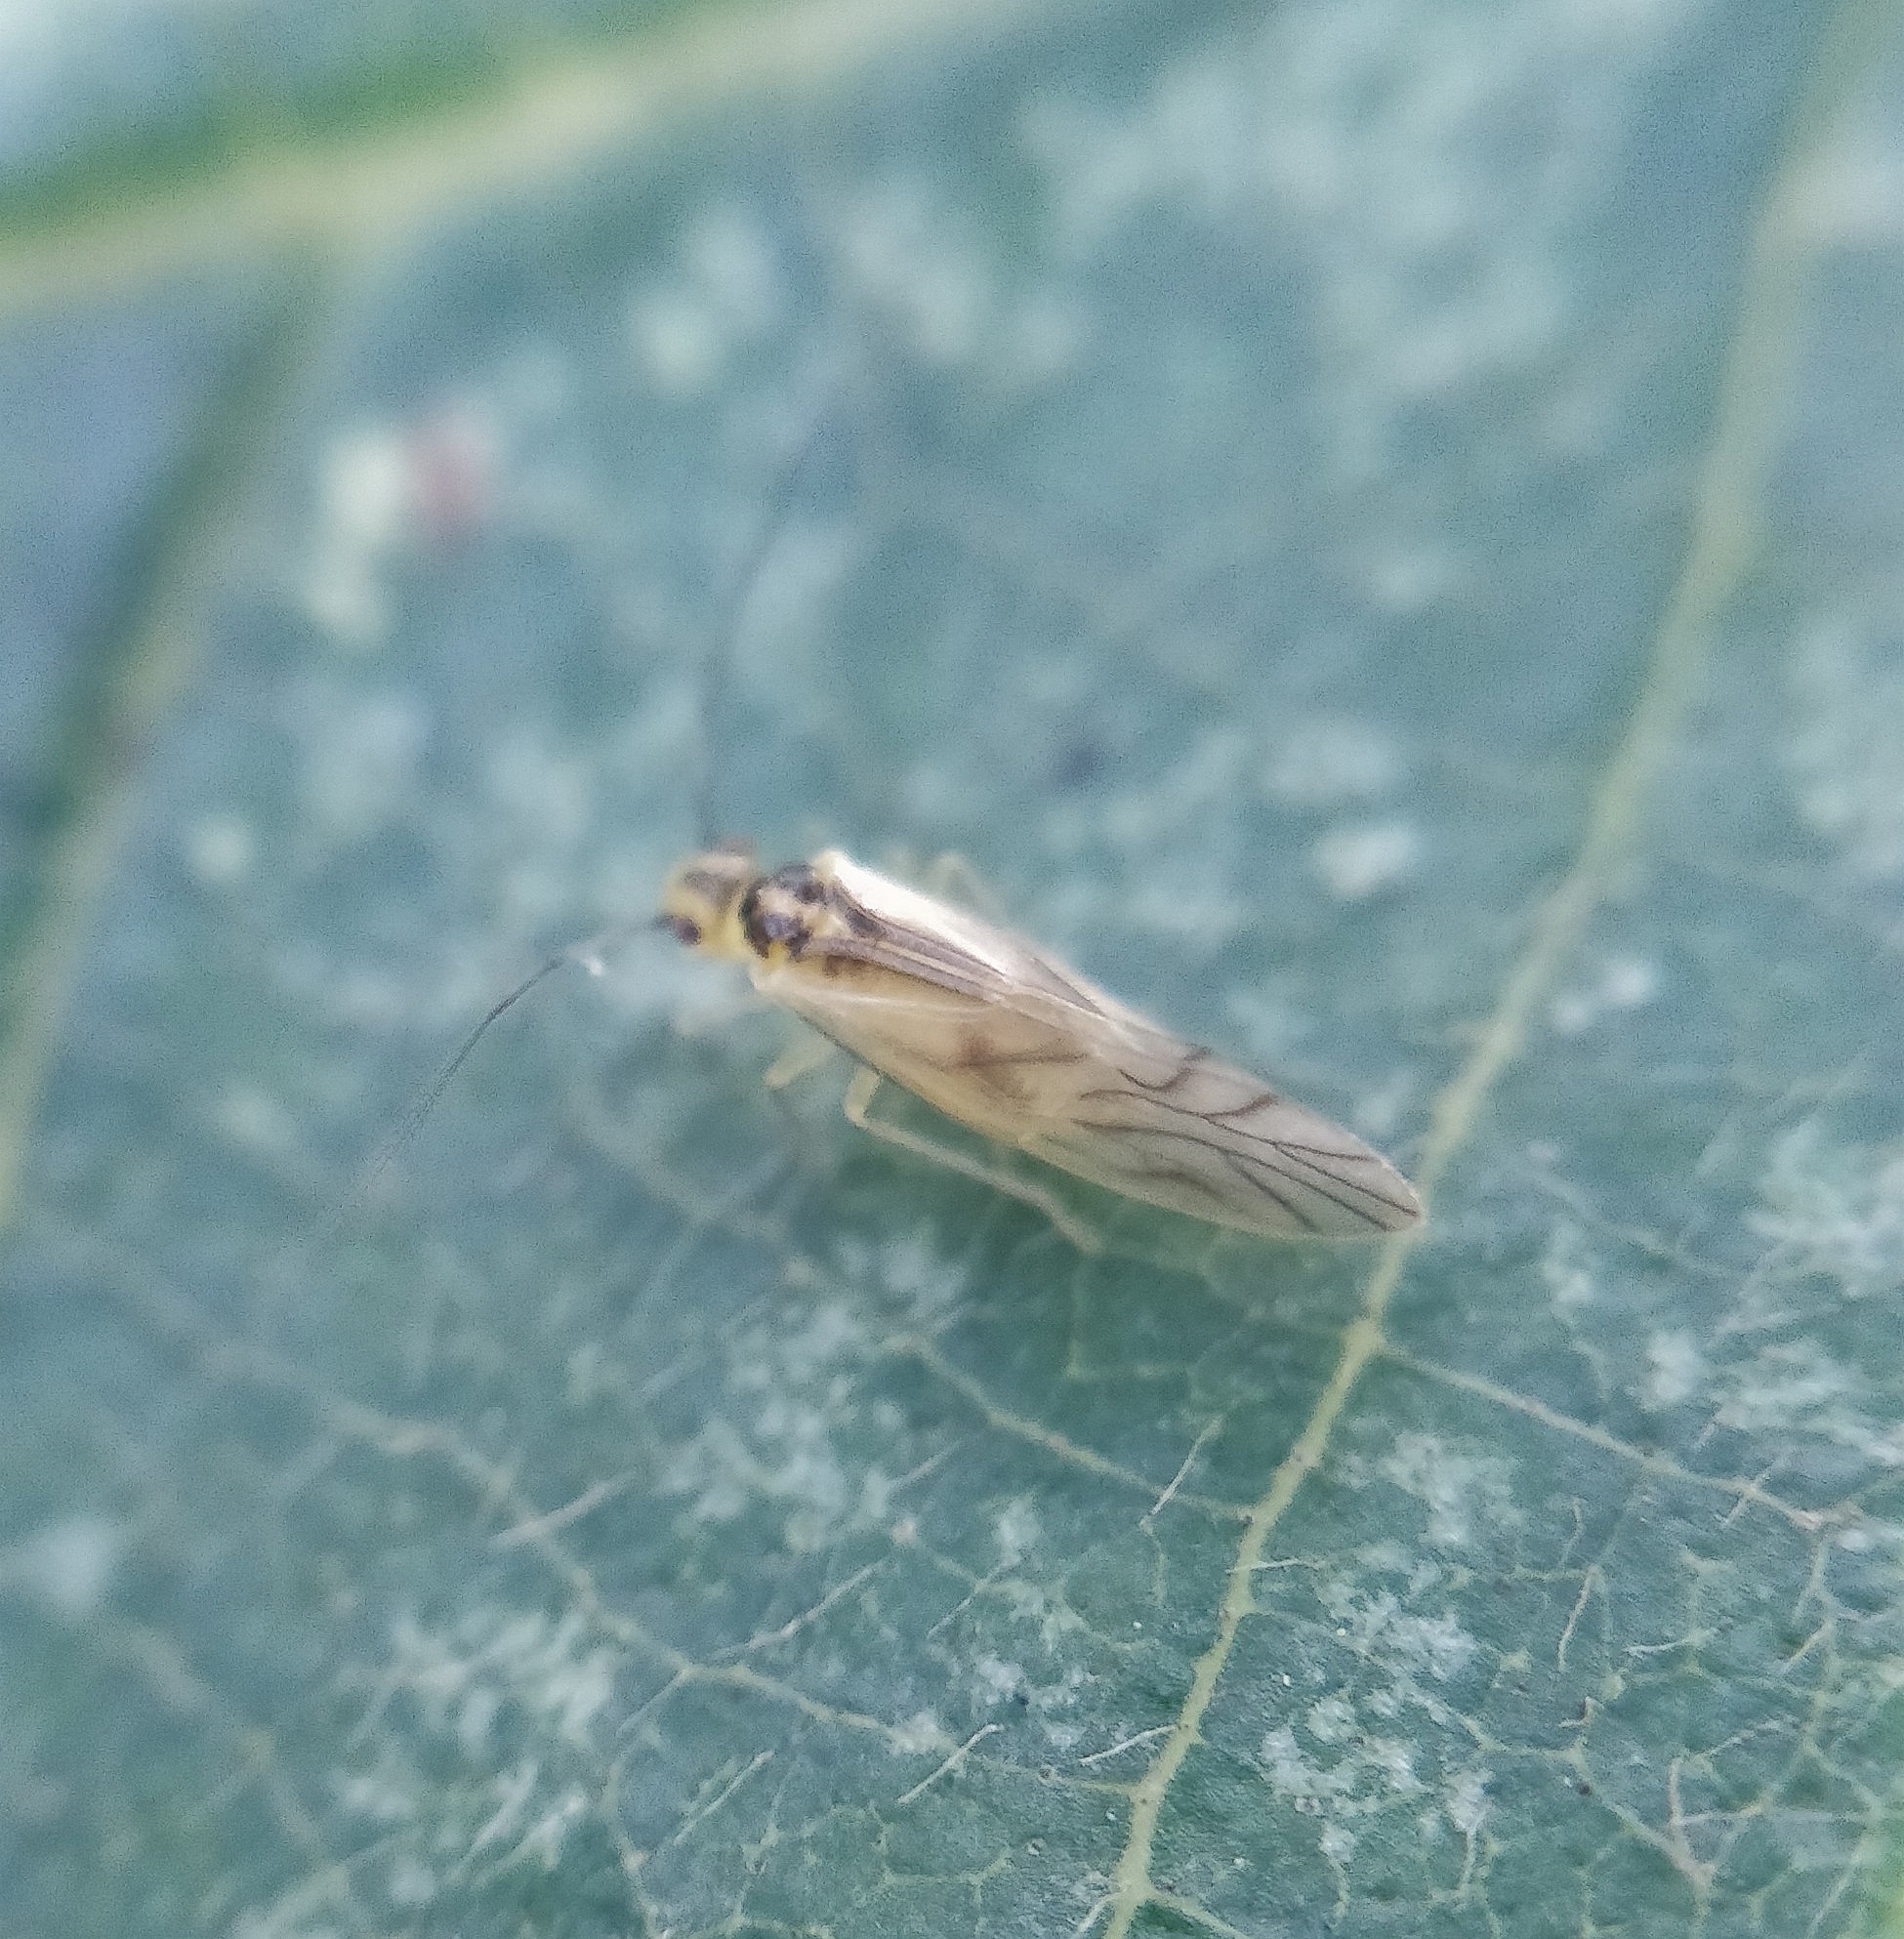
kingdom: Animalia
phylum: Arthropoda
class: Insecta
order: Psocodea
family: Caeciliusidae
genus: Valenzuela
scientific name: Valenzuela flavidus
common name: Yellow barklouse
